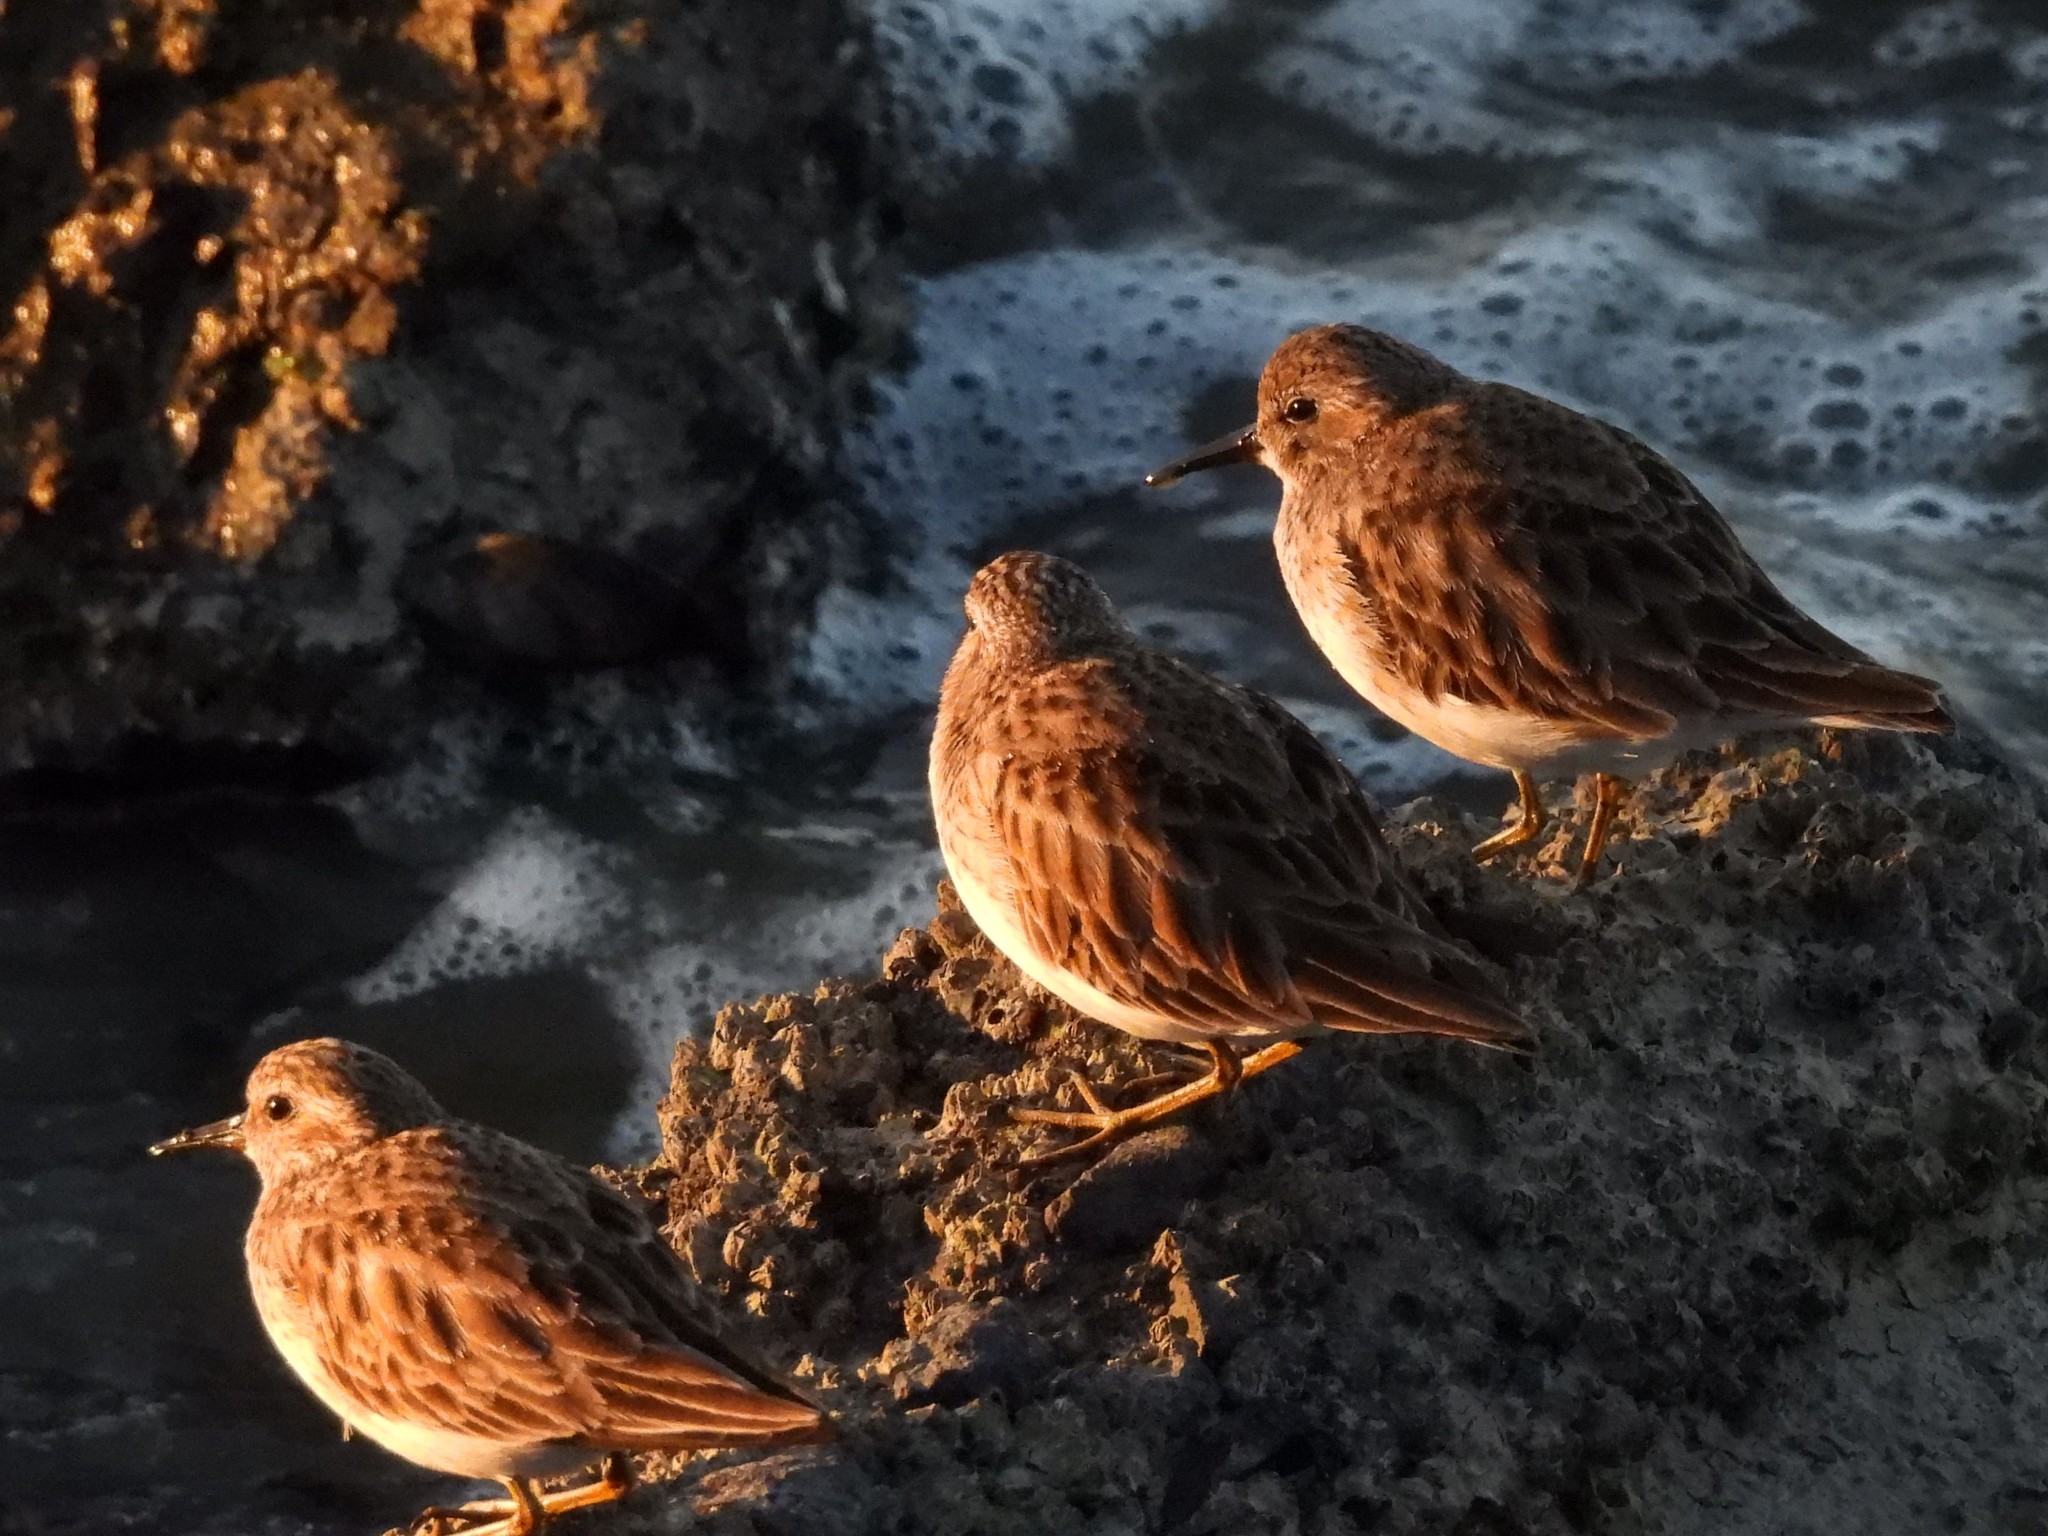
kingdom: Animalia
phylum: Chordata
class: Aves
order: Charadriiformes
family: Scolopacidae
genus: Calidris
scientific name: Calidris minutilla
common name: Least sandpiper
